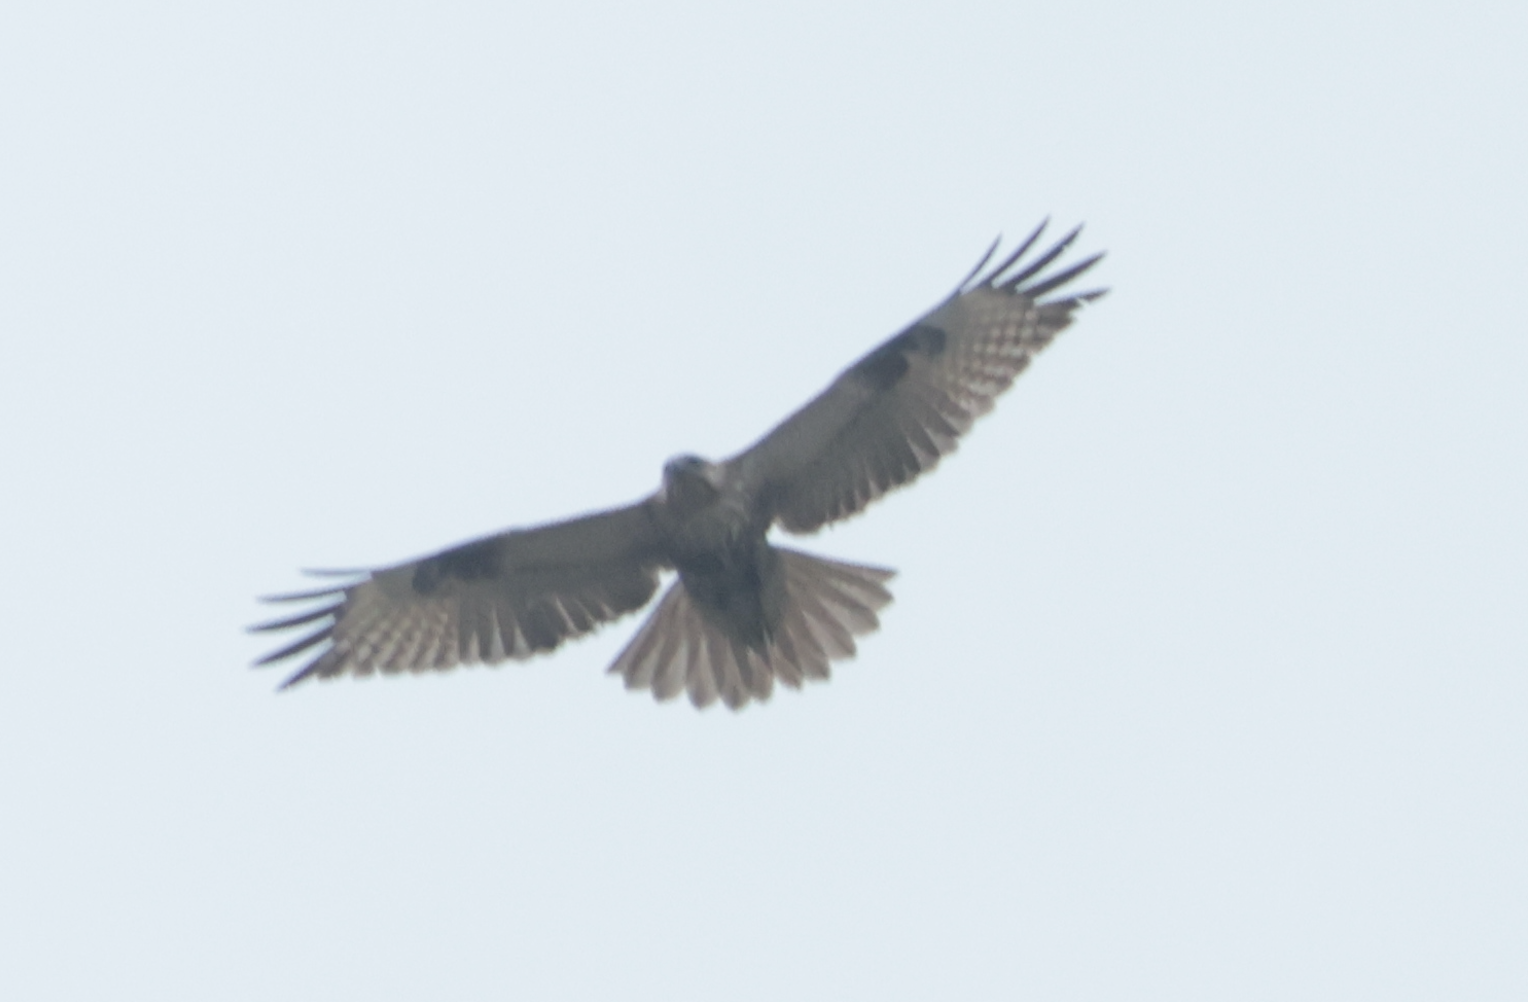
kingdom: Animalia
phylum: Chordata
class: Aves
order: Accipitriformes
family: Accipitridae
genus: Buteo
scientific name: Buteo japonicus
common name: Eastern buzzard
